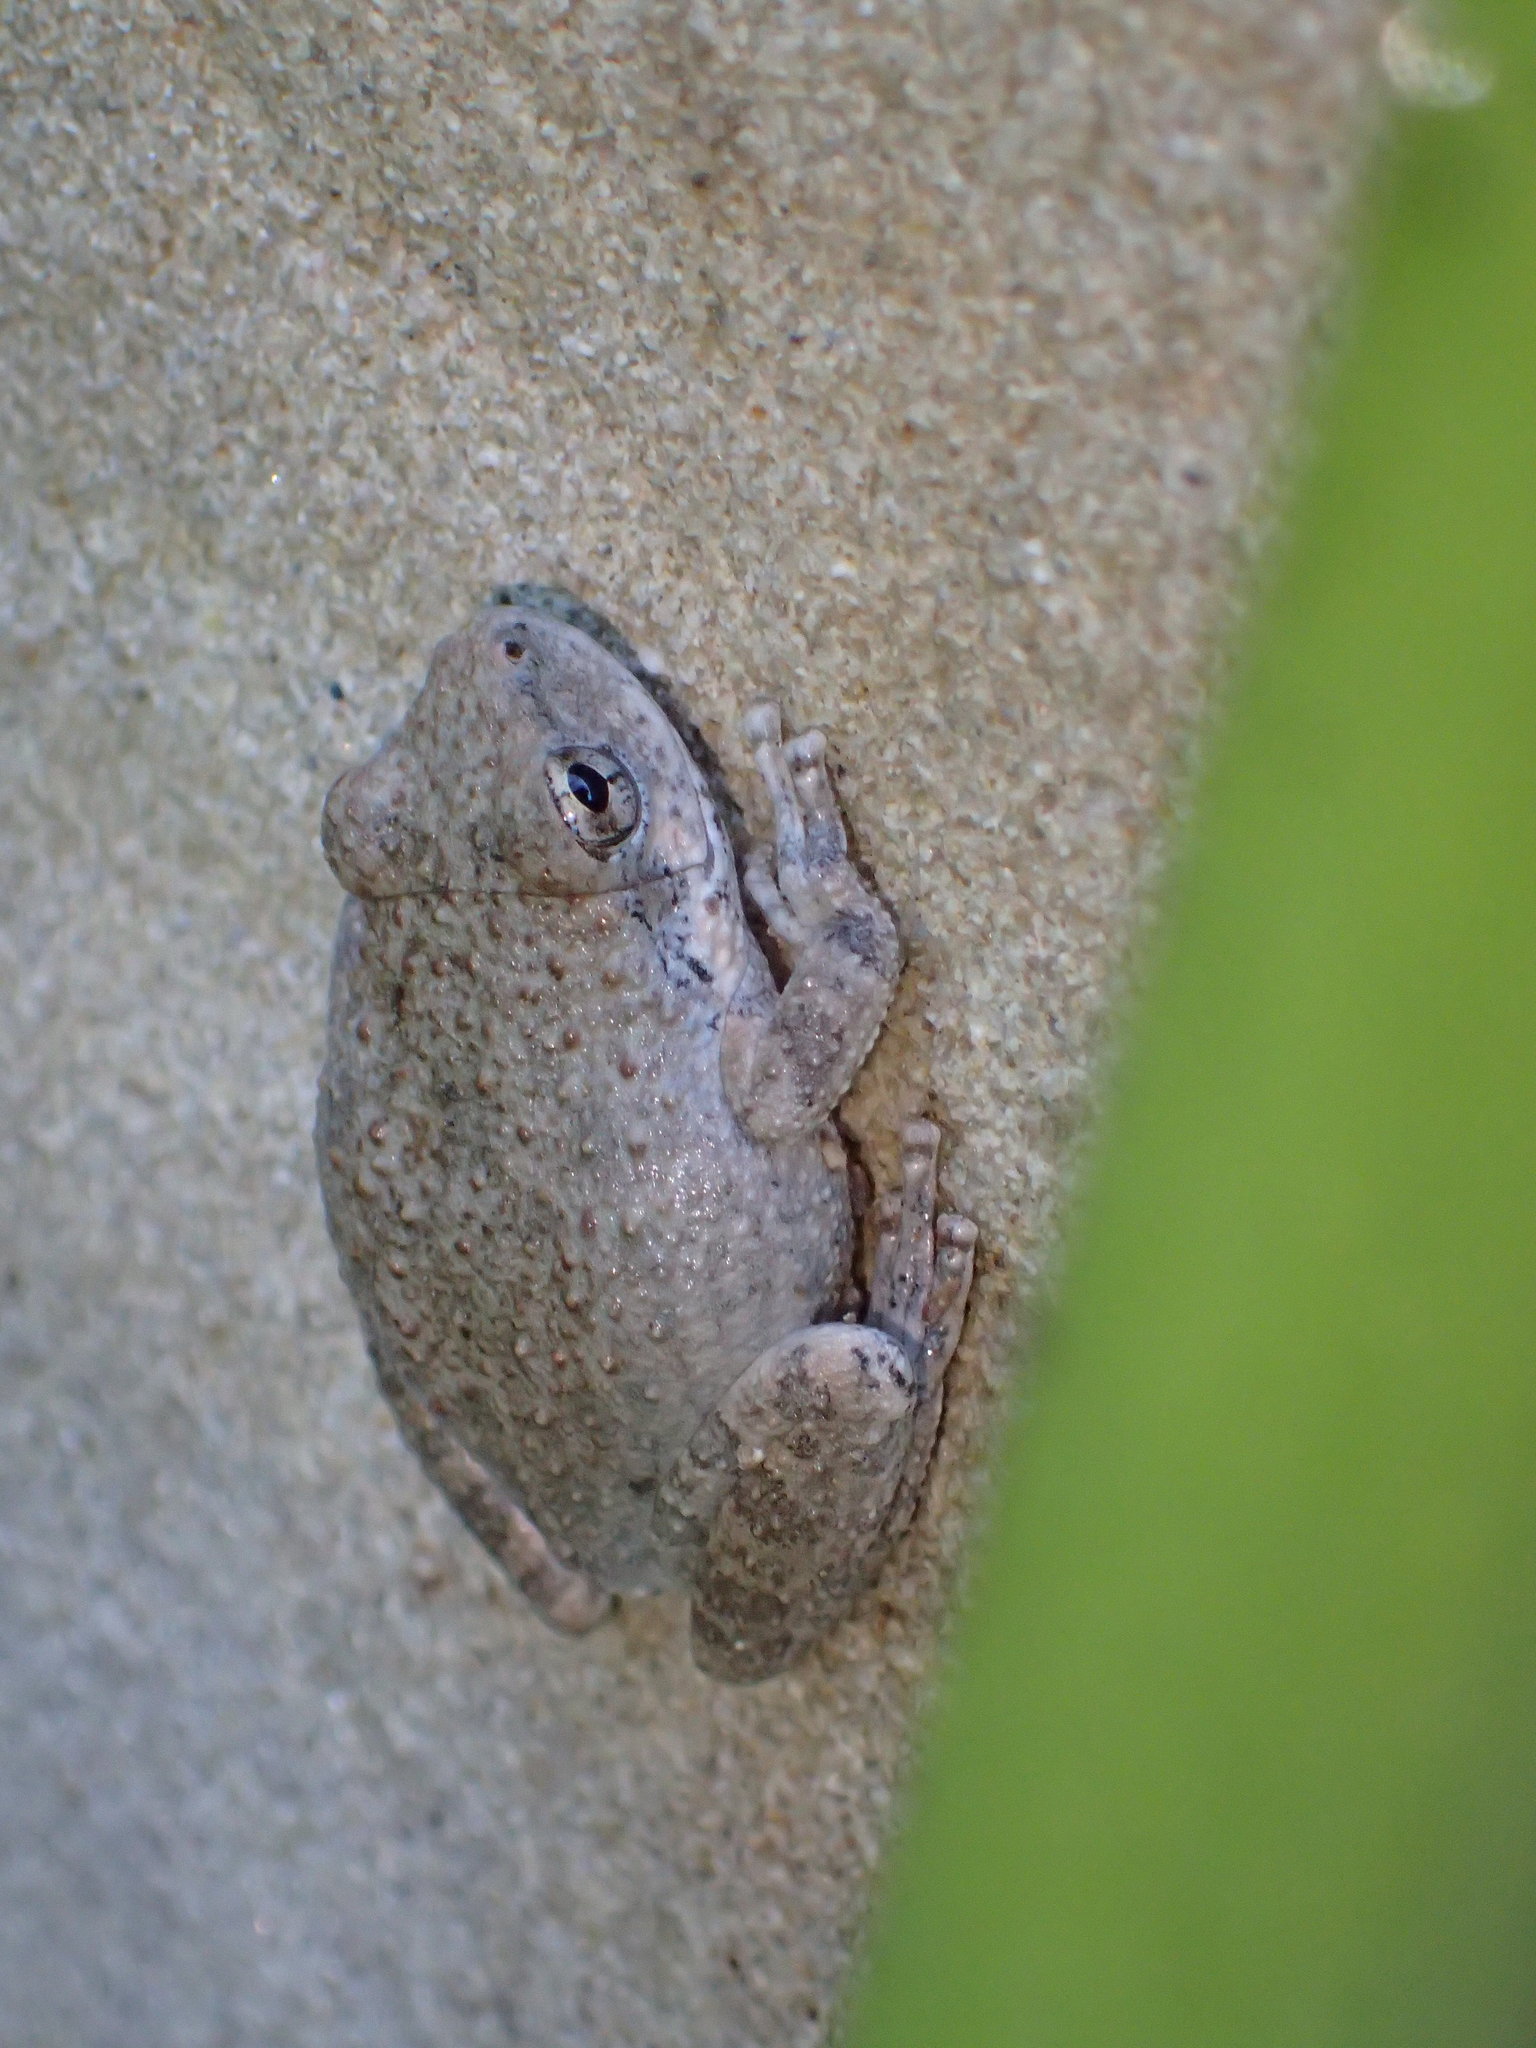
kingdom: Animalia
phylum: Chordata
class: Amphibia
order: Anura
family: Hylidae
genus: Pseudacris
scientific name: Pseudacris cadaverina
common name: California chorus frog
